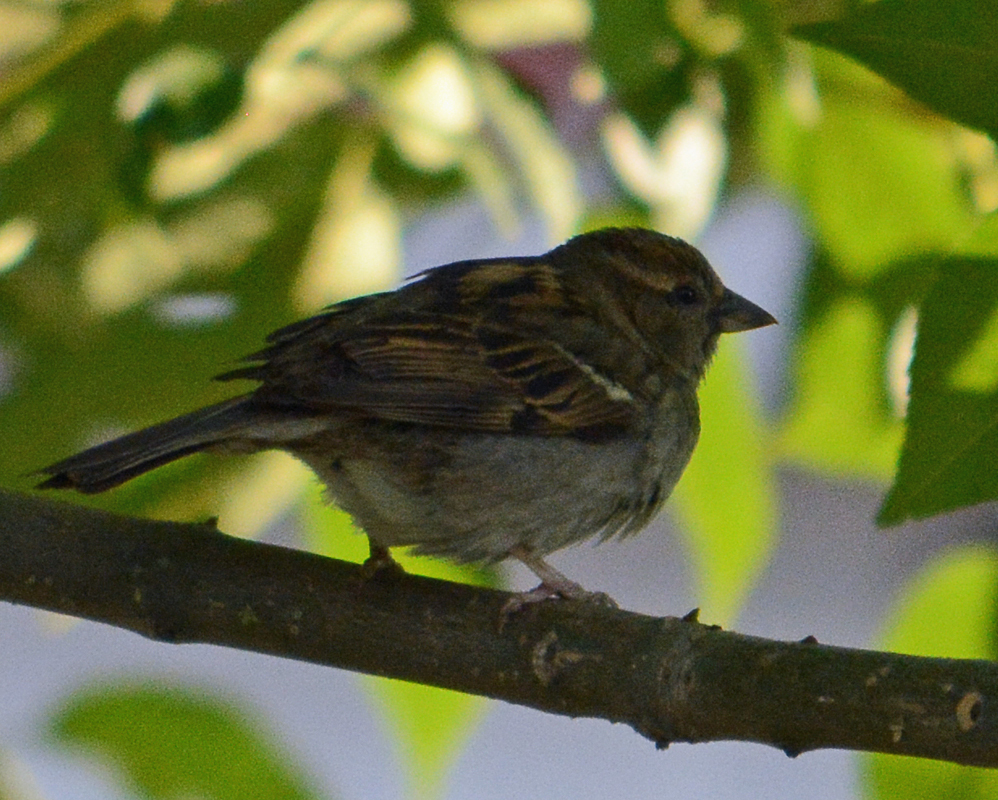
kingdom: Animalia
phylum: Chordata
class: Aves
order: Passeriformes
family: Passeridae
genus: Passer
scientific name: Passer domesticus
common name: House sparrow
